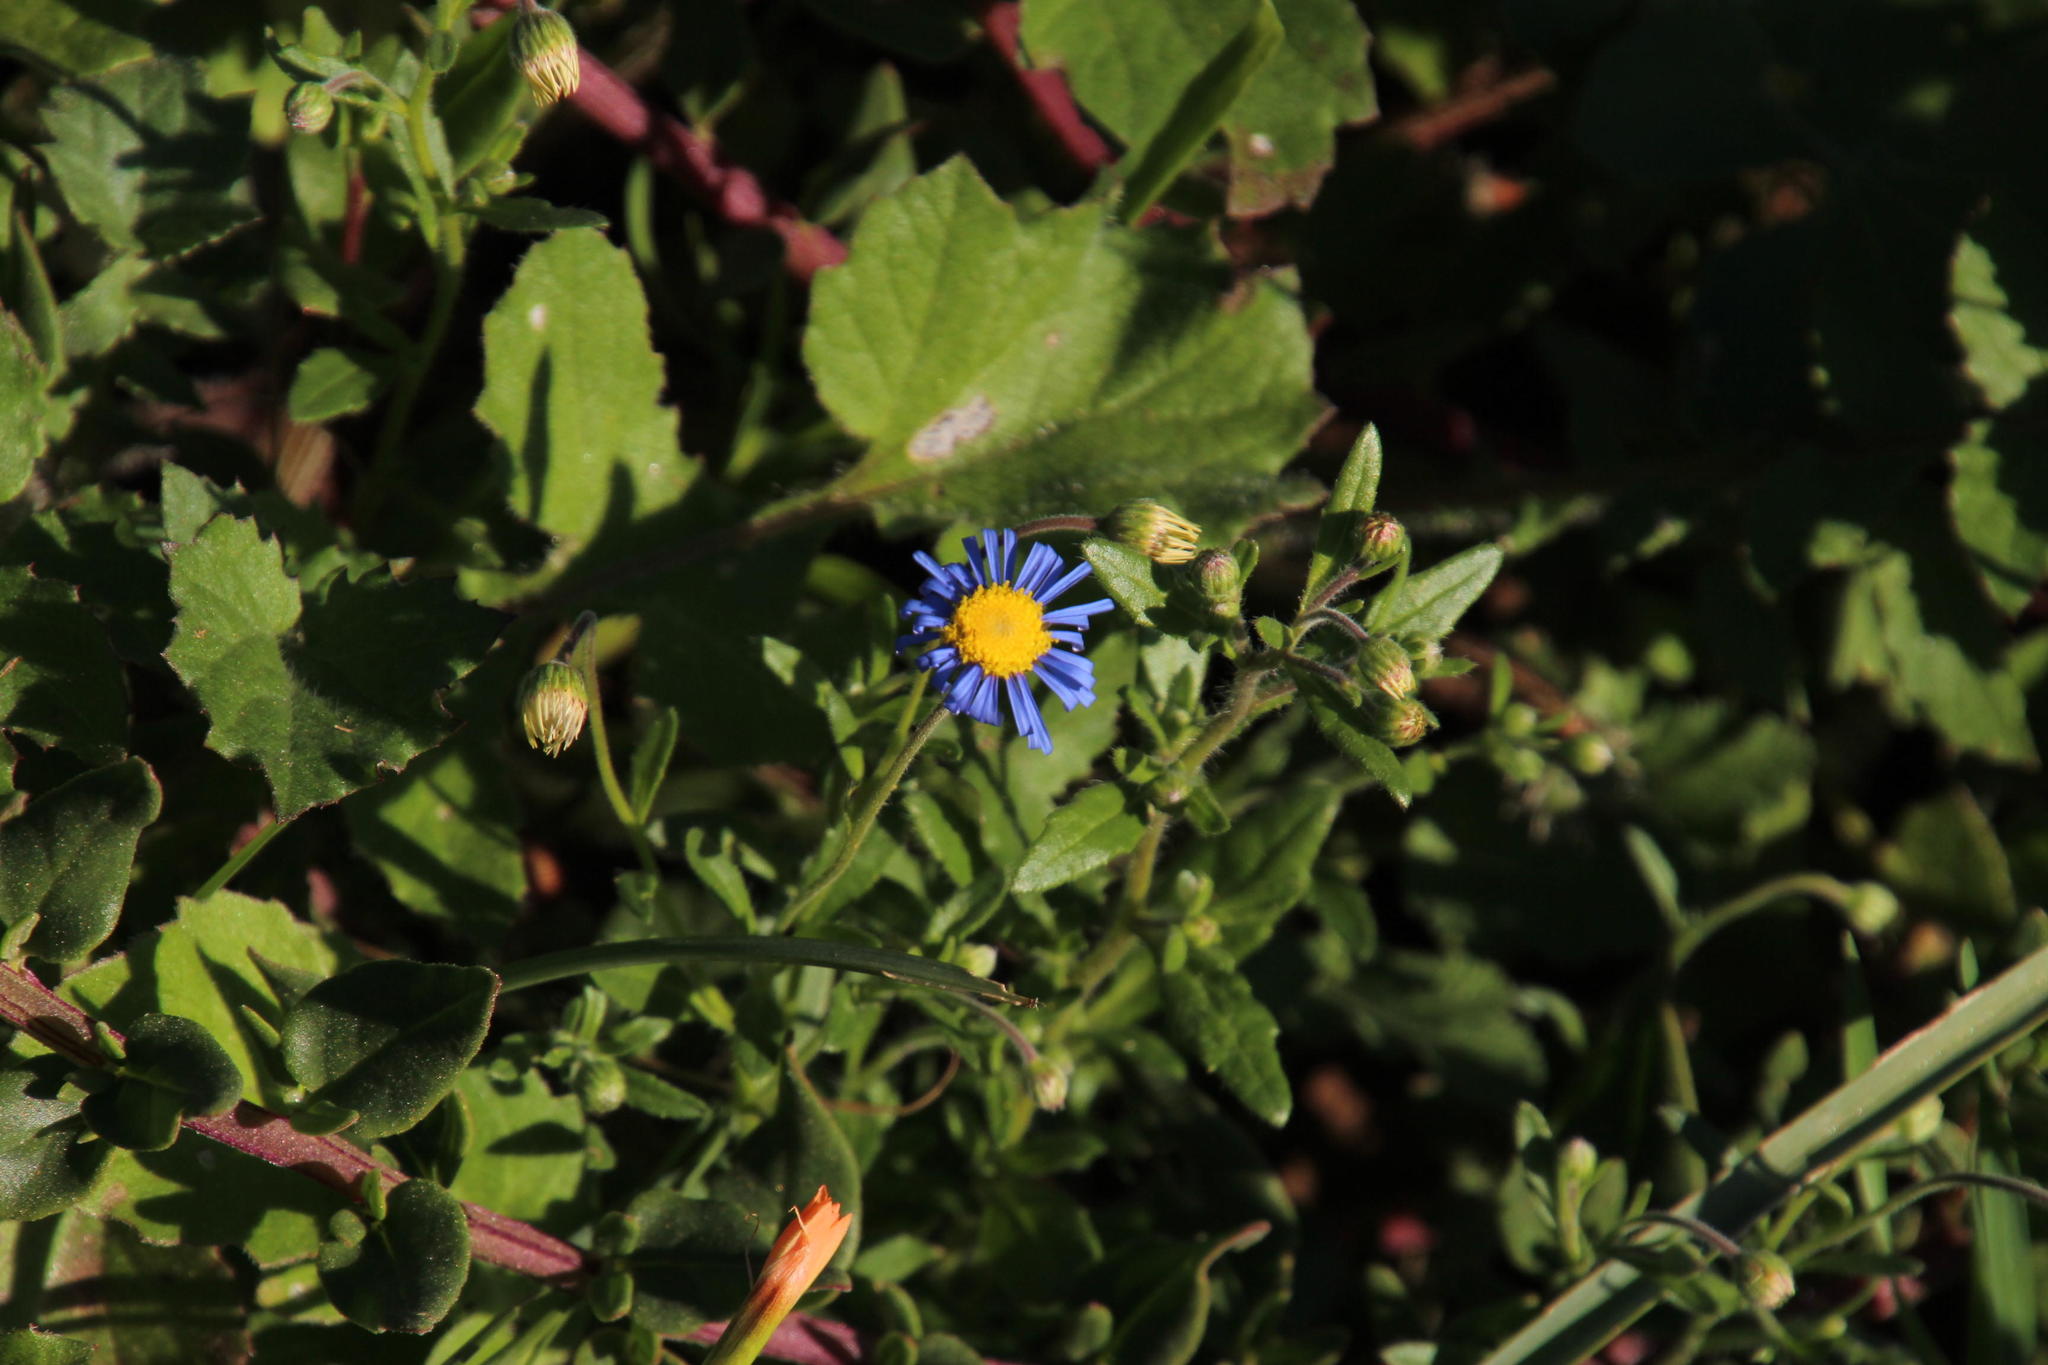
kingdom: Plantae
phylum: Tracheophyta
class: Magnoliopsida
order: Asterales
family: Asteraceae
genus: Felicia
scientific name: Felicia amoena
